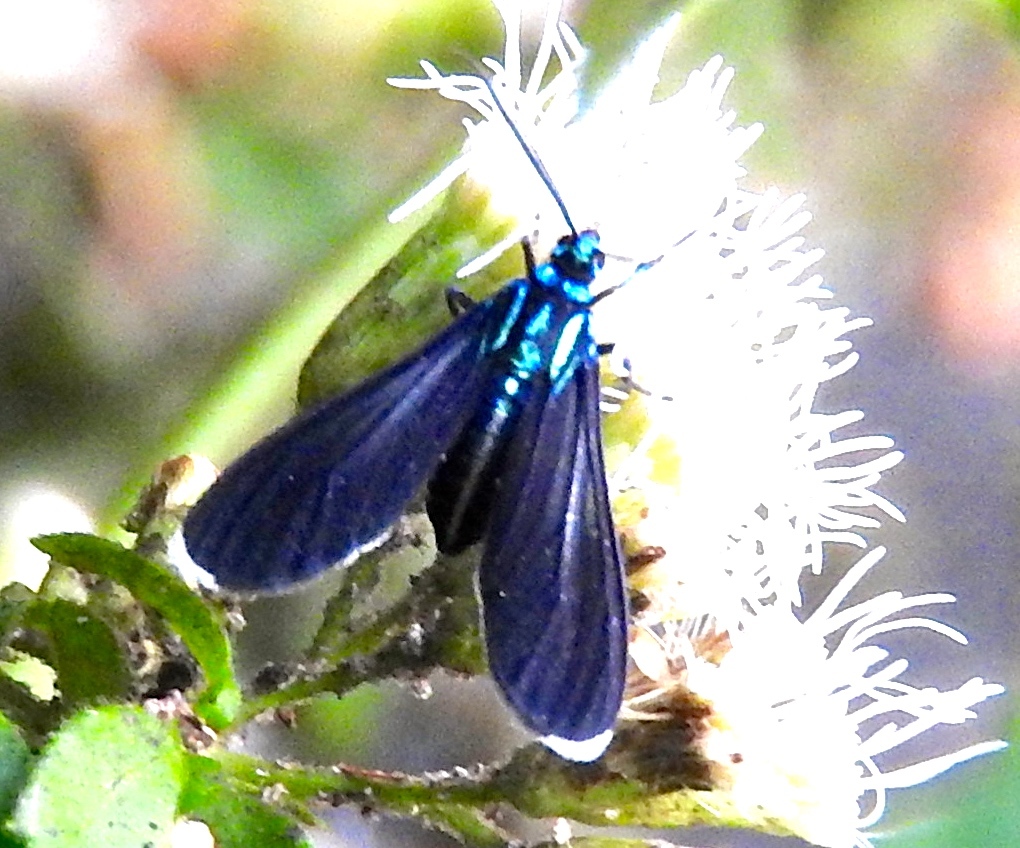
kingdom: Animalia
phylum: Arthropoda
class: Insecta
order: Lepidoptera
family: Erebidae
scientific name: Erebidae
